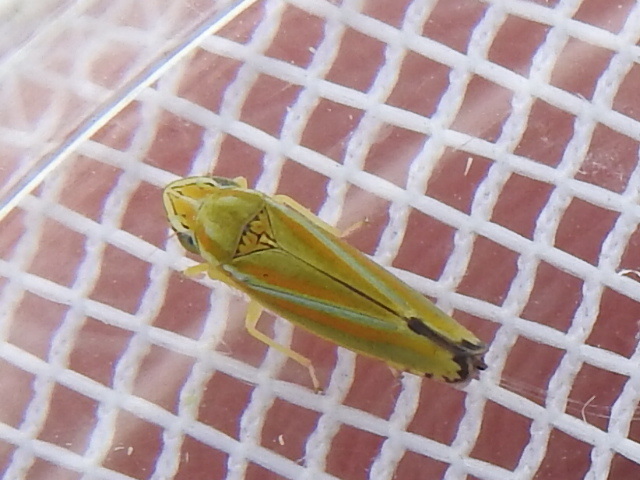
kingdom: Animalia
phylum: Arthropoda
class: Insecta
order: Hemiptera
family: Cicadellidae
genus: Graphocephala
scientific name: Graphocephala versuta
